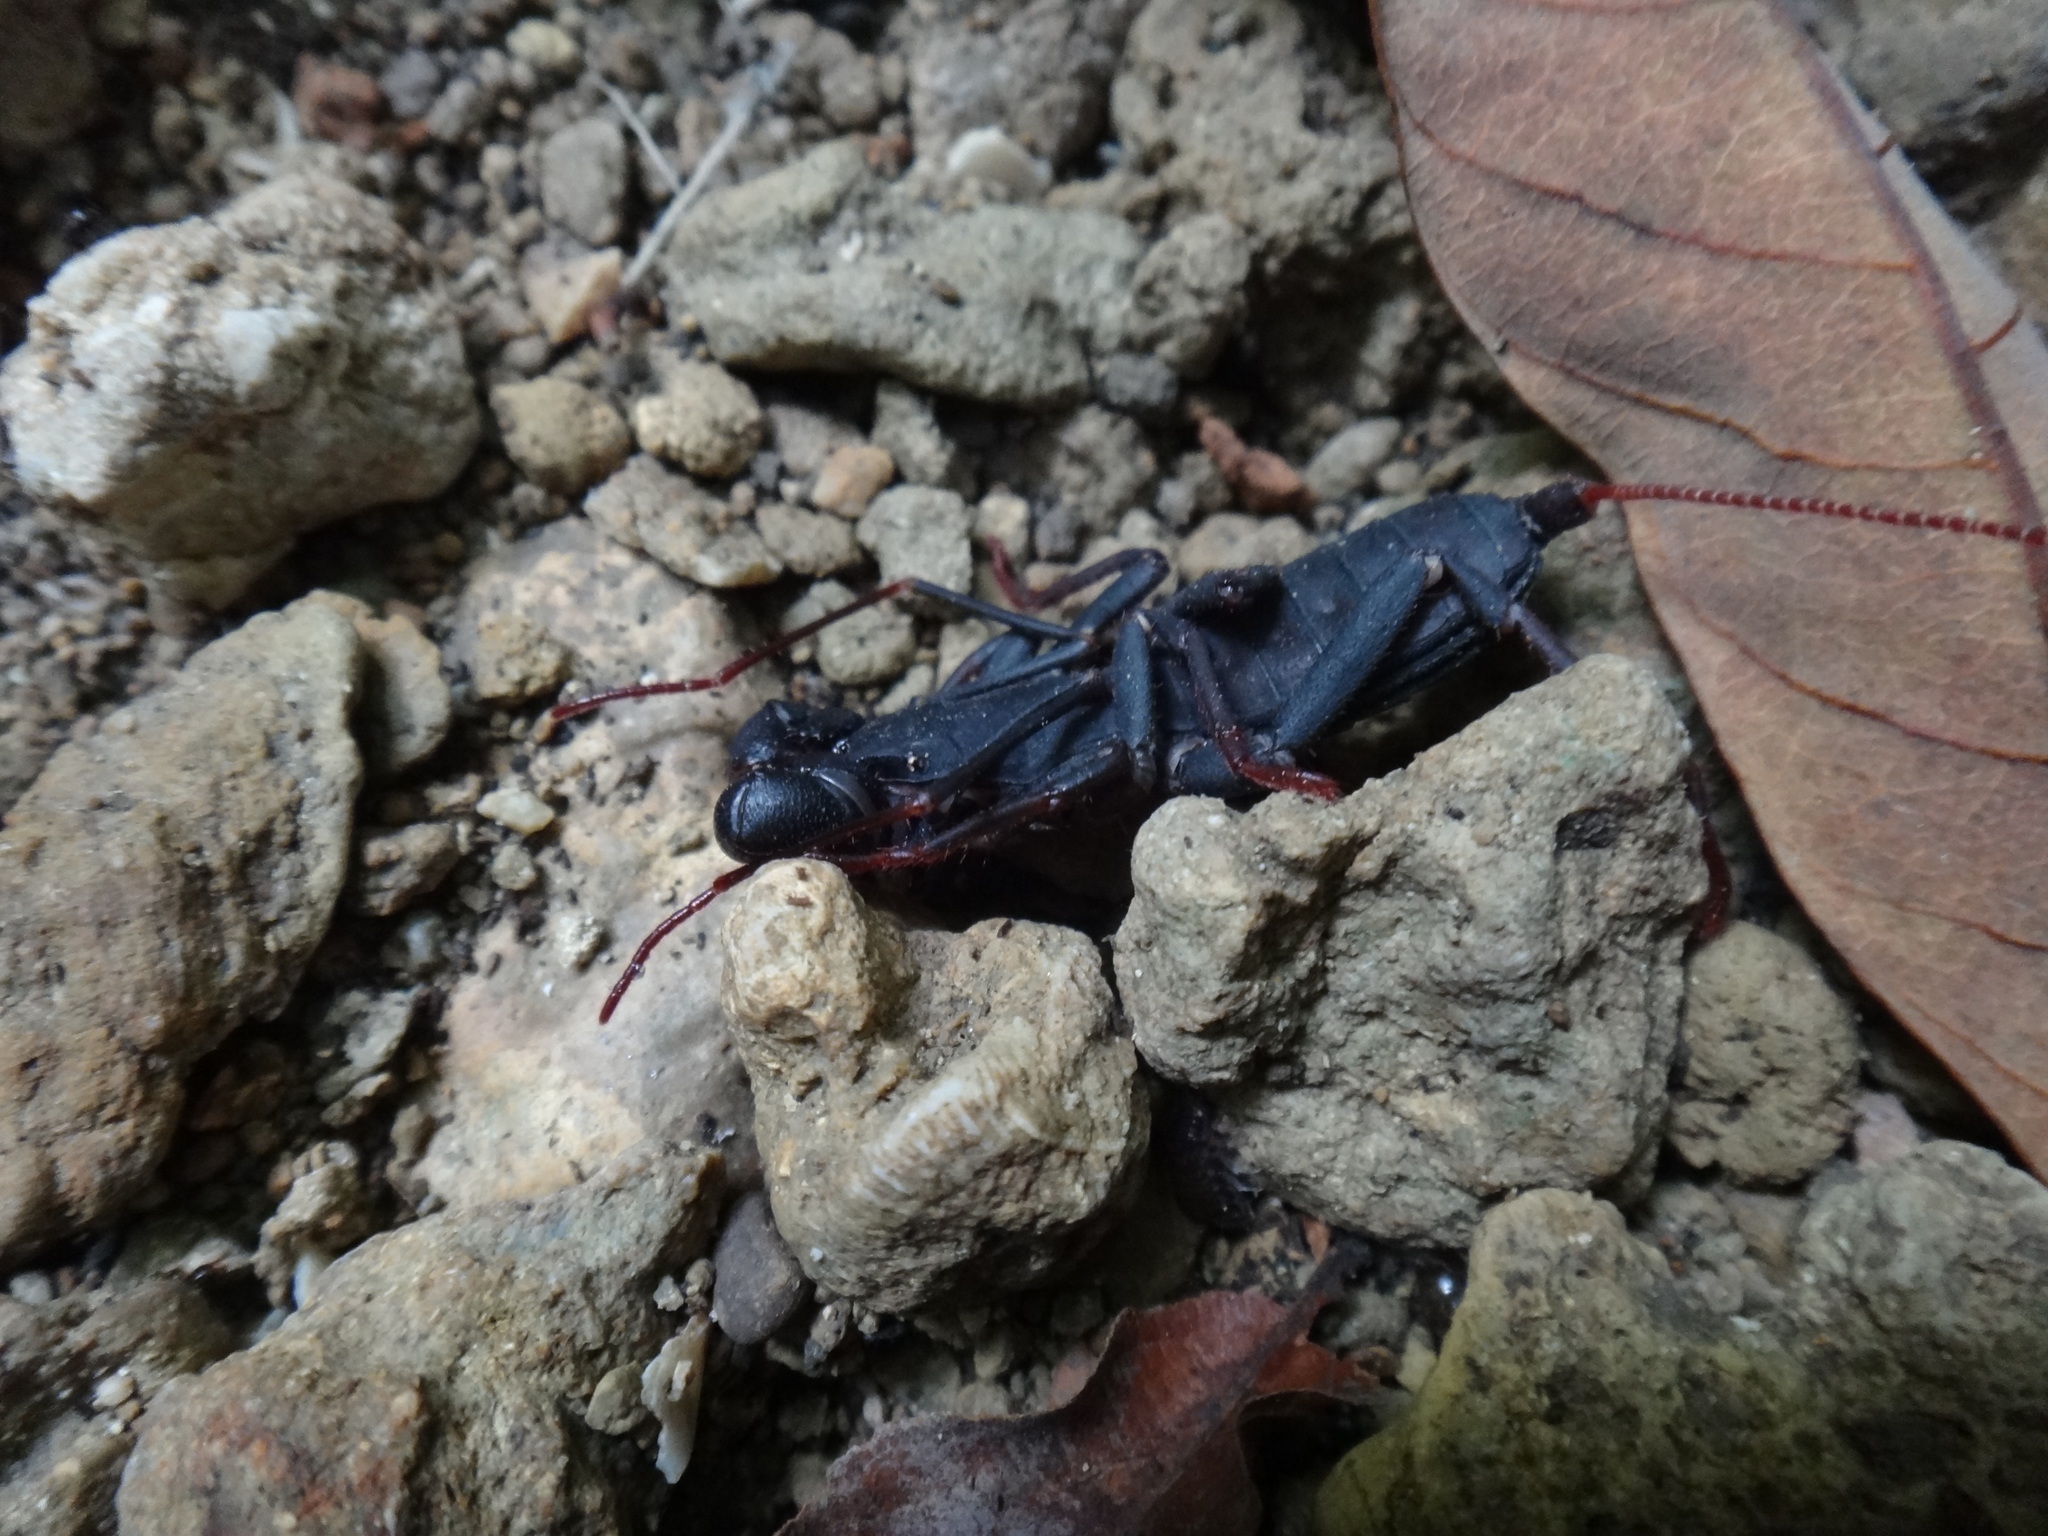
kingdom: Animalia
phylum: Arthropoda
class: Arachnida
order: Uropygi
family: Thelyphonidae
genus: Typopeltis
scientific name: Typopeltis crucifer
